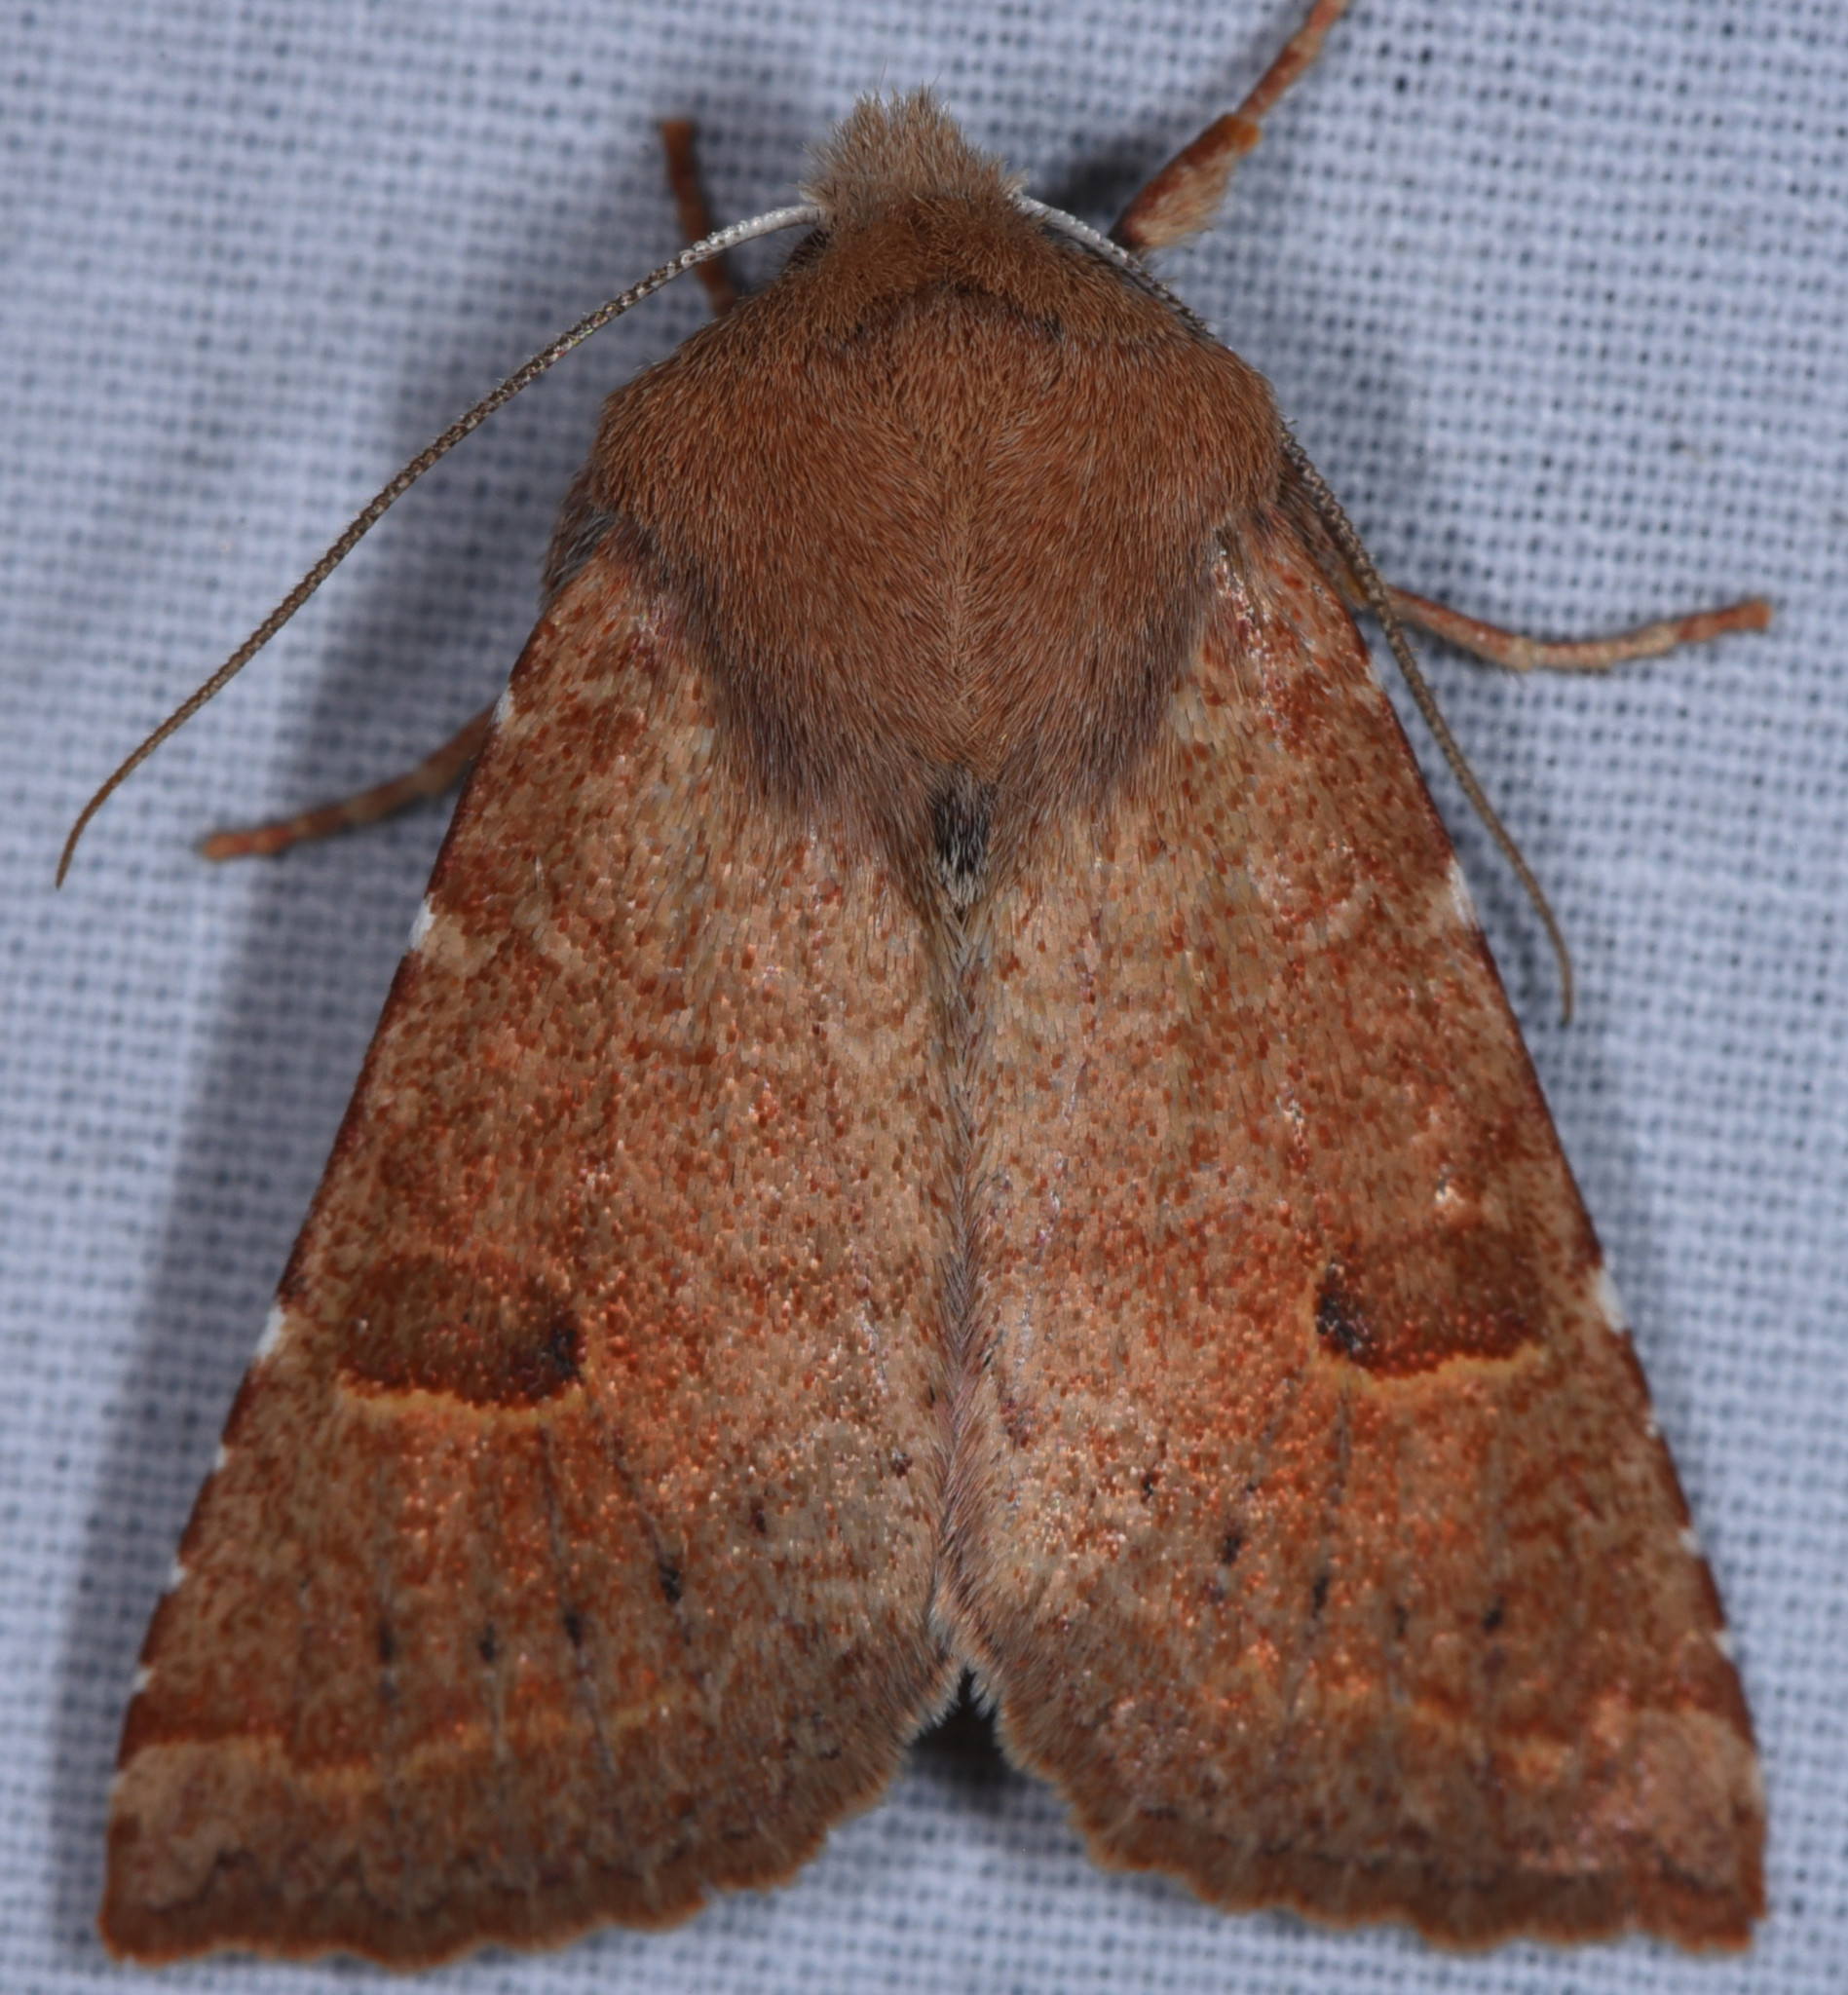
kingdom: Animalia
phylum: Arthropoda
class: Insecta
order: Lepidoptera
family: Noctuidae
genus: Orthosia
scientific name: Orthosia ferrigera
